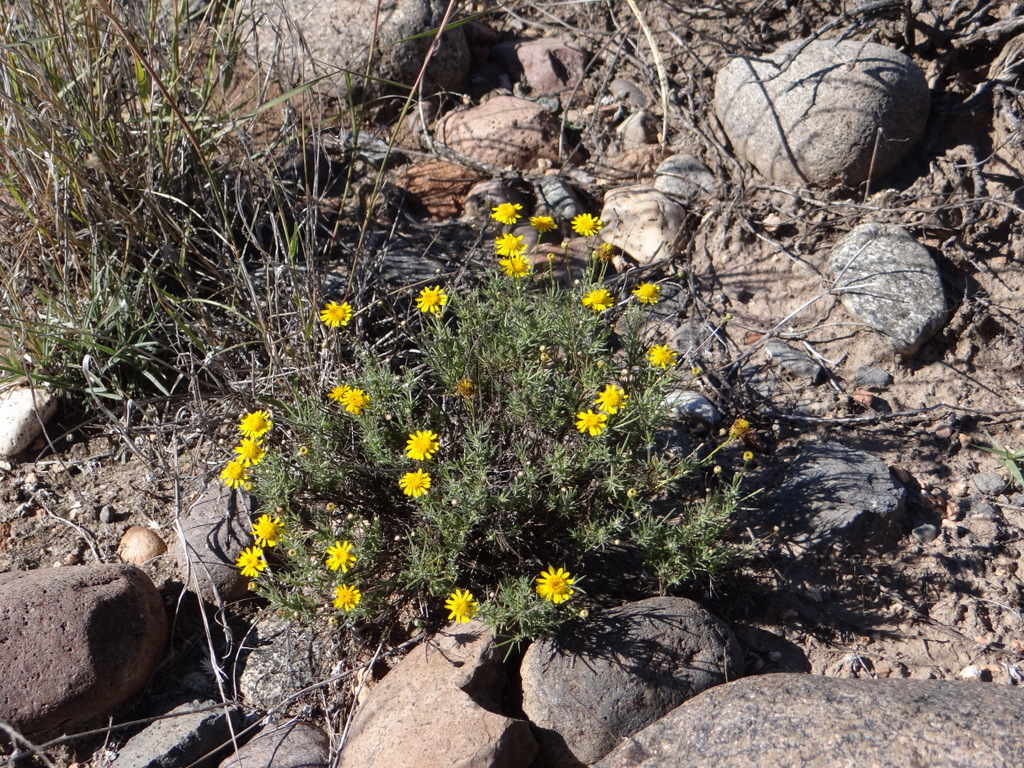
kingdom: Plantae
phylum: Tracheophyta
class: Magnoliopsida
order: Asterales
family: Asteraceae
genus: Thymophylla
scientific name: Thymophylla pentachaeta
